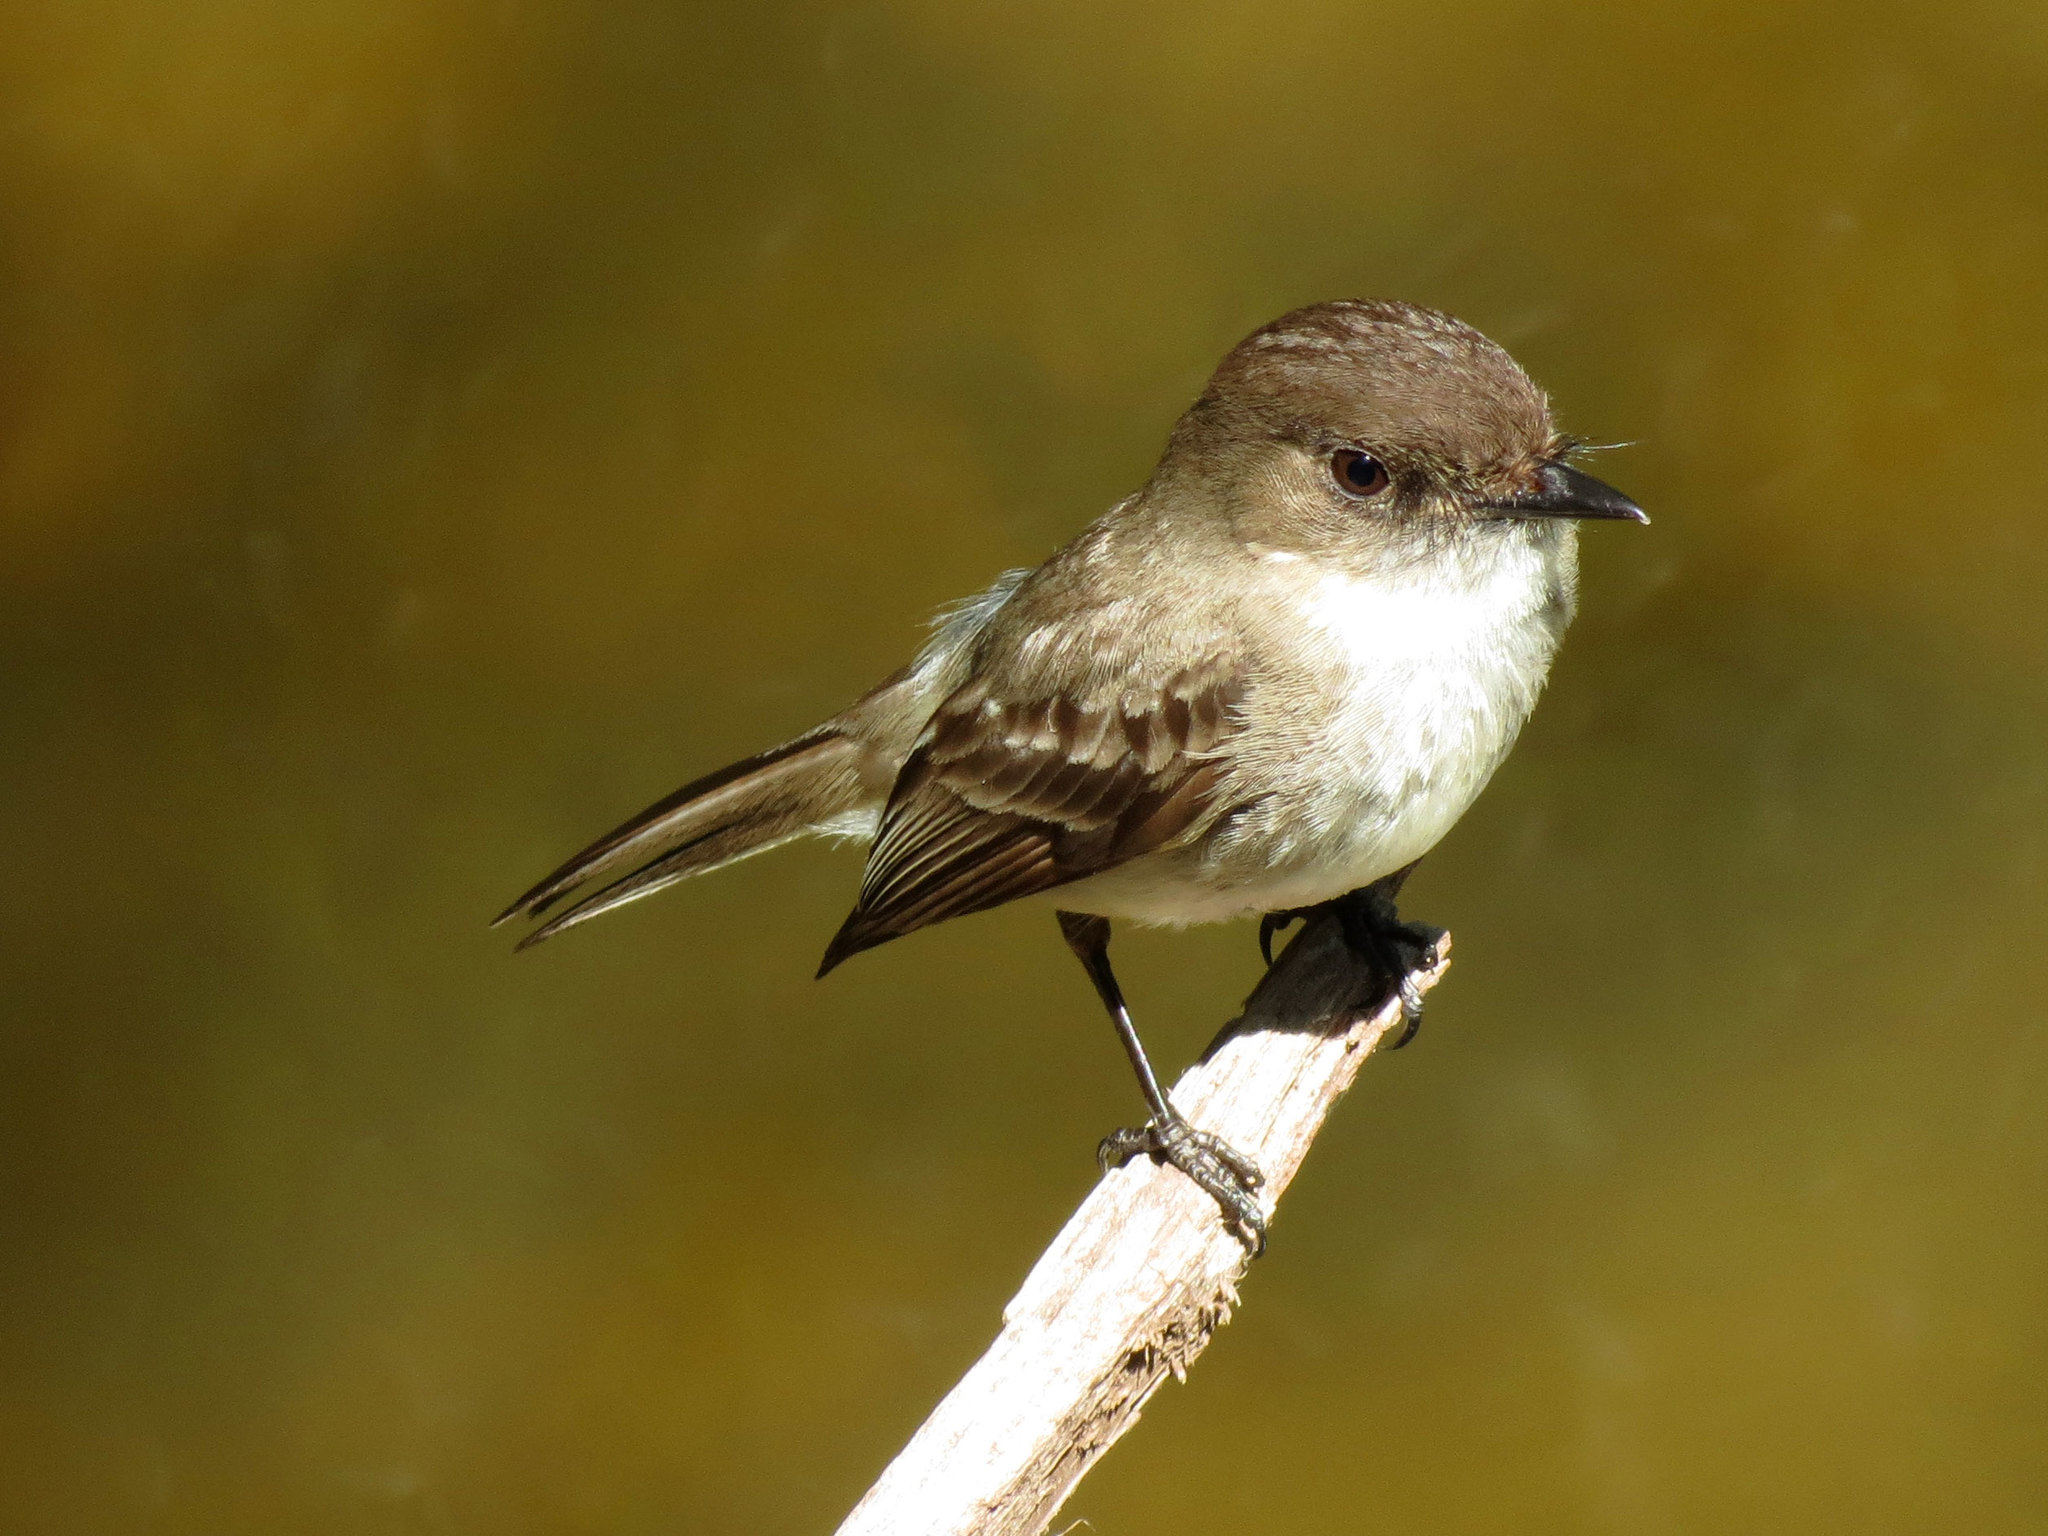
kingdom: Animalia
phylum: Chordata
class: Aves
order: Passeriformes
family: Tyrannidae
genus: Sayornis
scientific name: Sayornis phoebe
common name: Eastern phoebe
